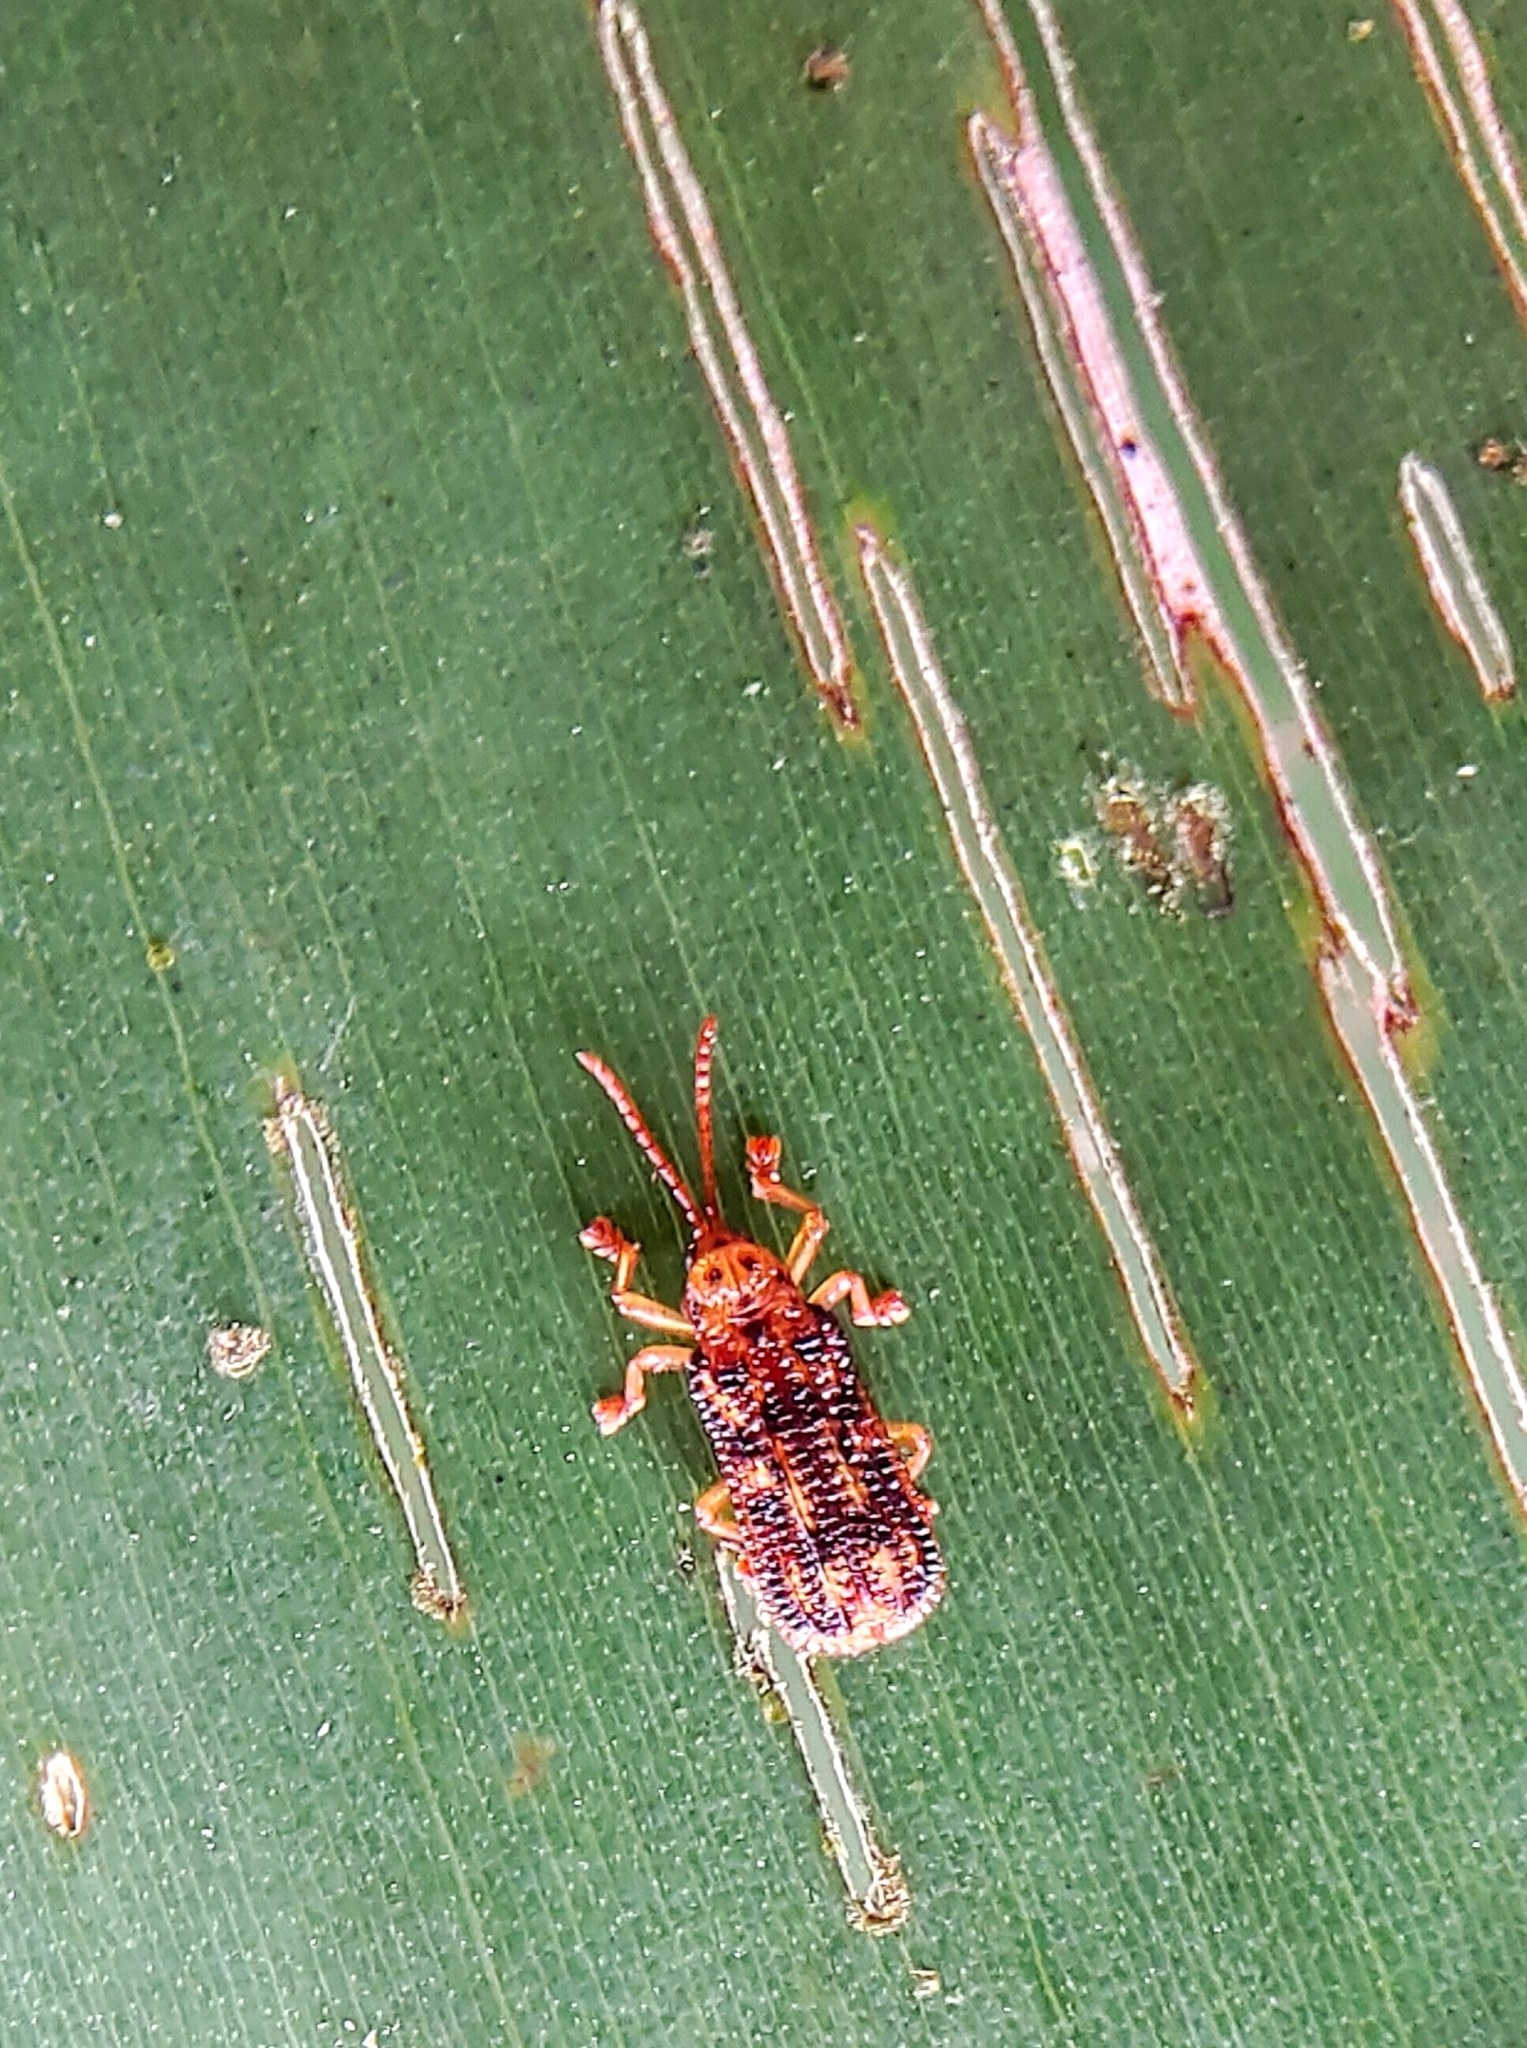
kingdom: Animalia
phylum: Arthropoda
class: Insecta
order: Coleoptera
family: Chrysomelidae
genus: Gonophora
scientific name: Gonophora pulchella
